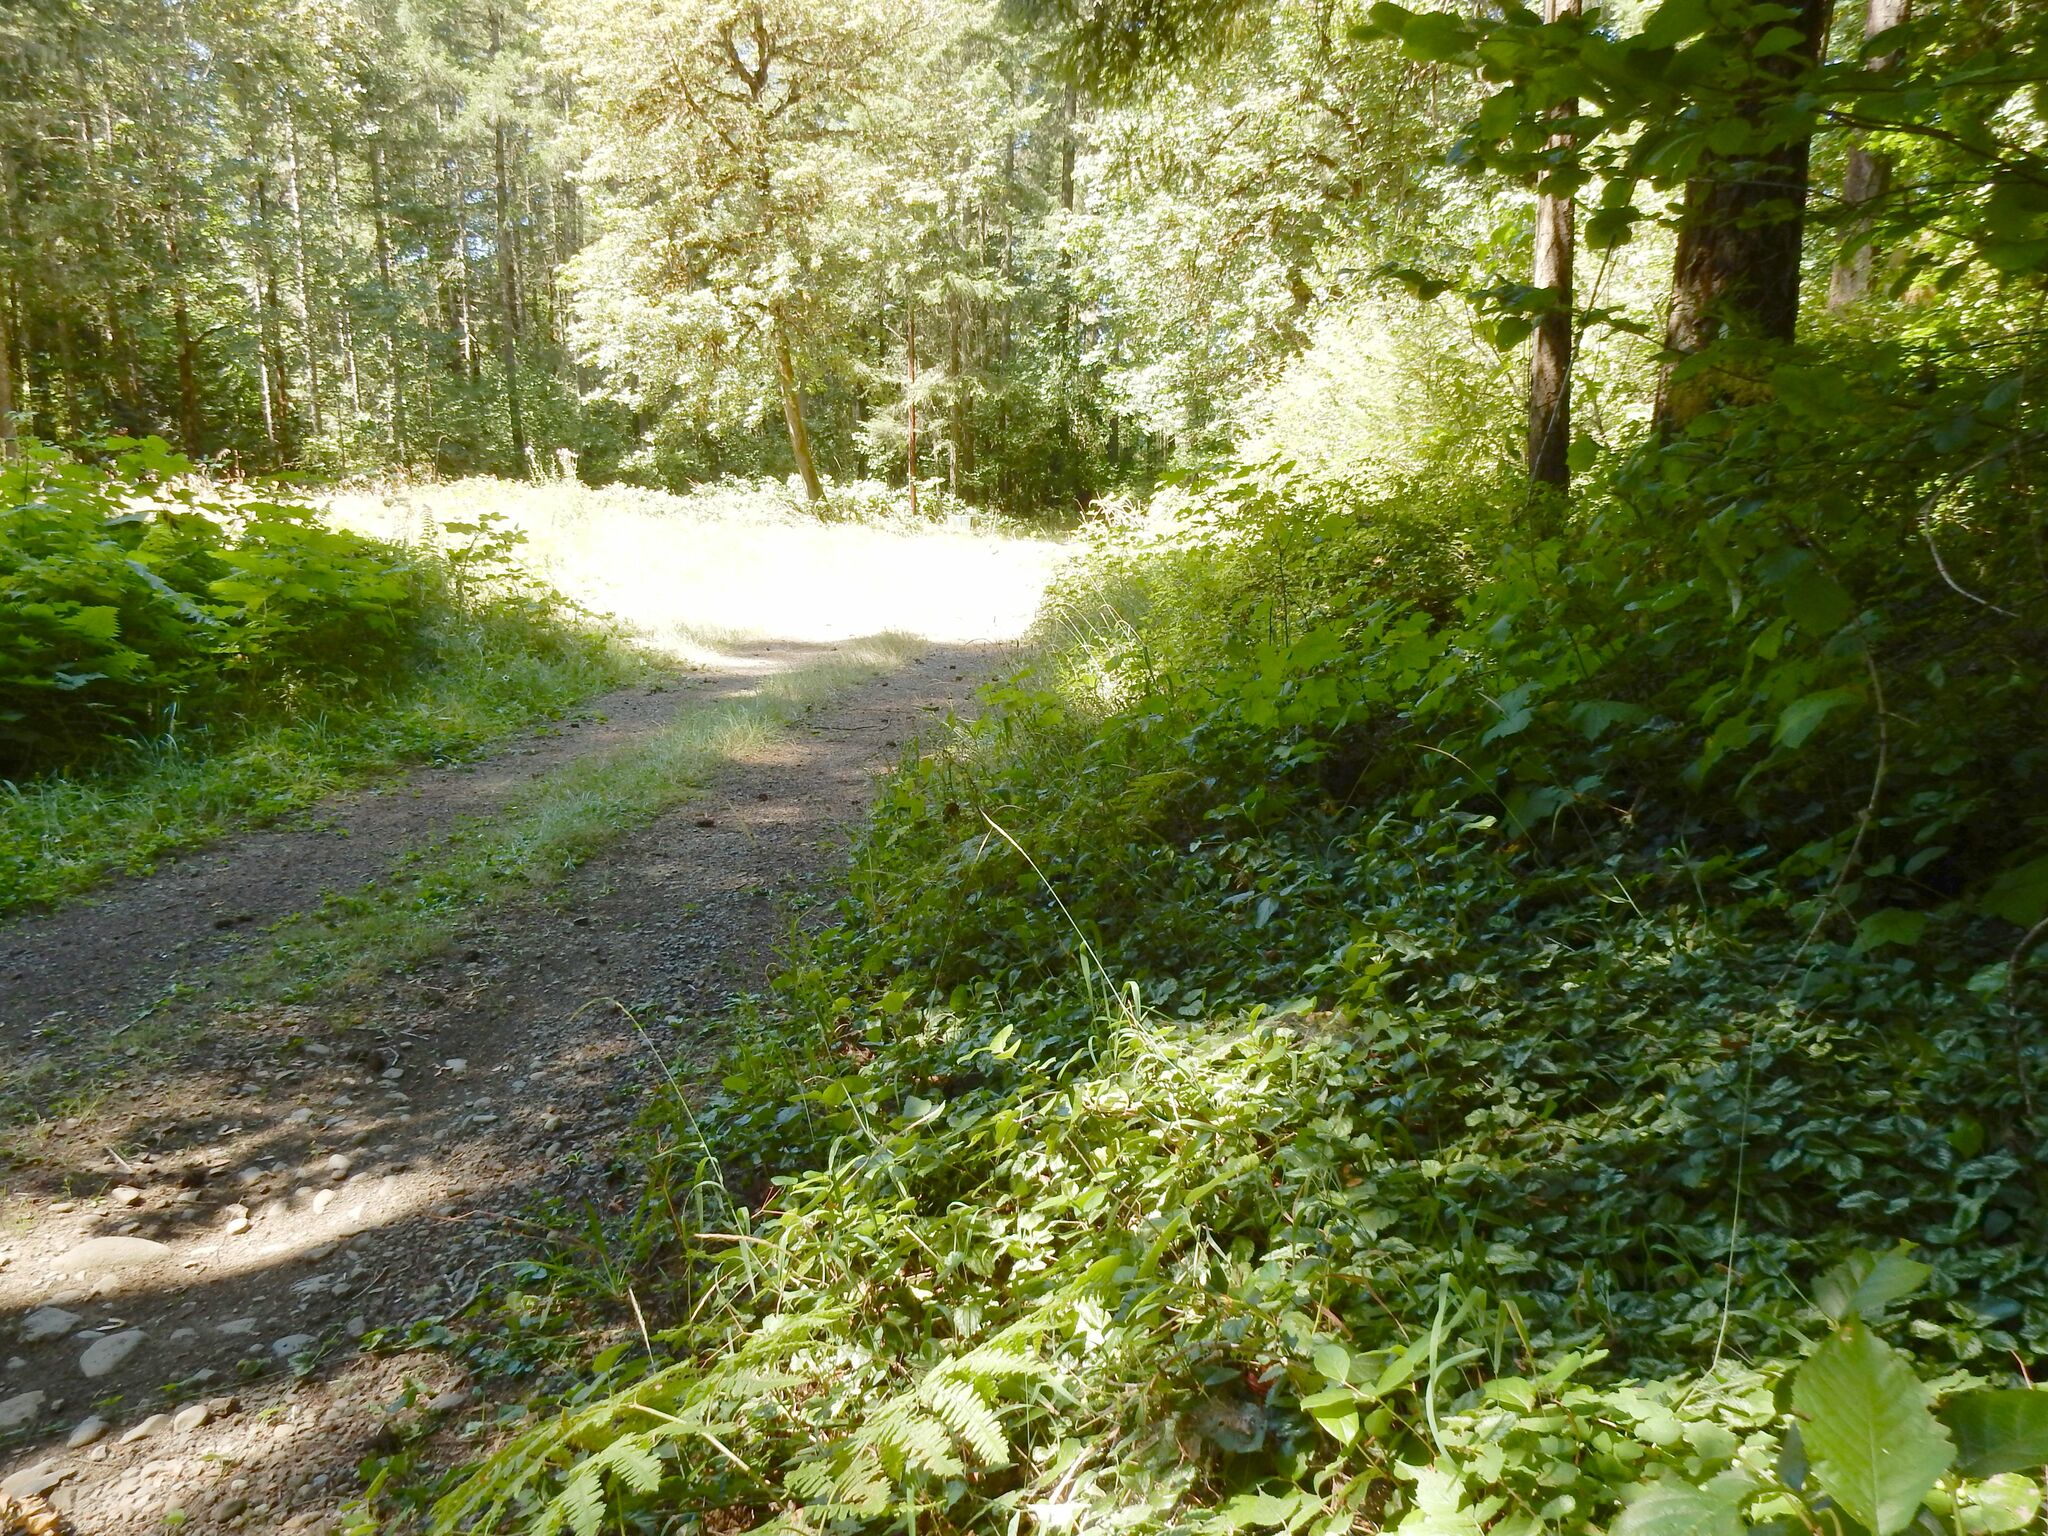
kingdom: Plantae
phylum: Tracheophyta
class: Magnoliopsida
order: Lamiales
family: Lamiaceae
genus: Lamium
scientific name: Lamium galeobdolon
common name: Yellow archangel
